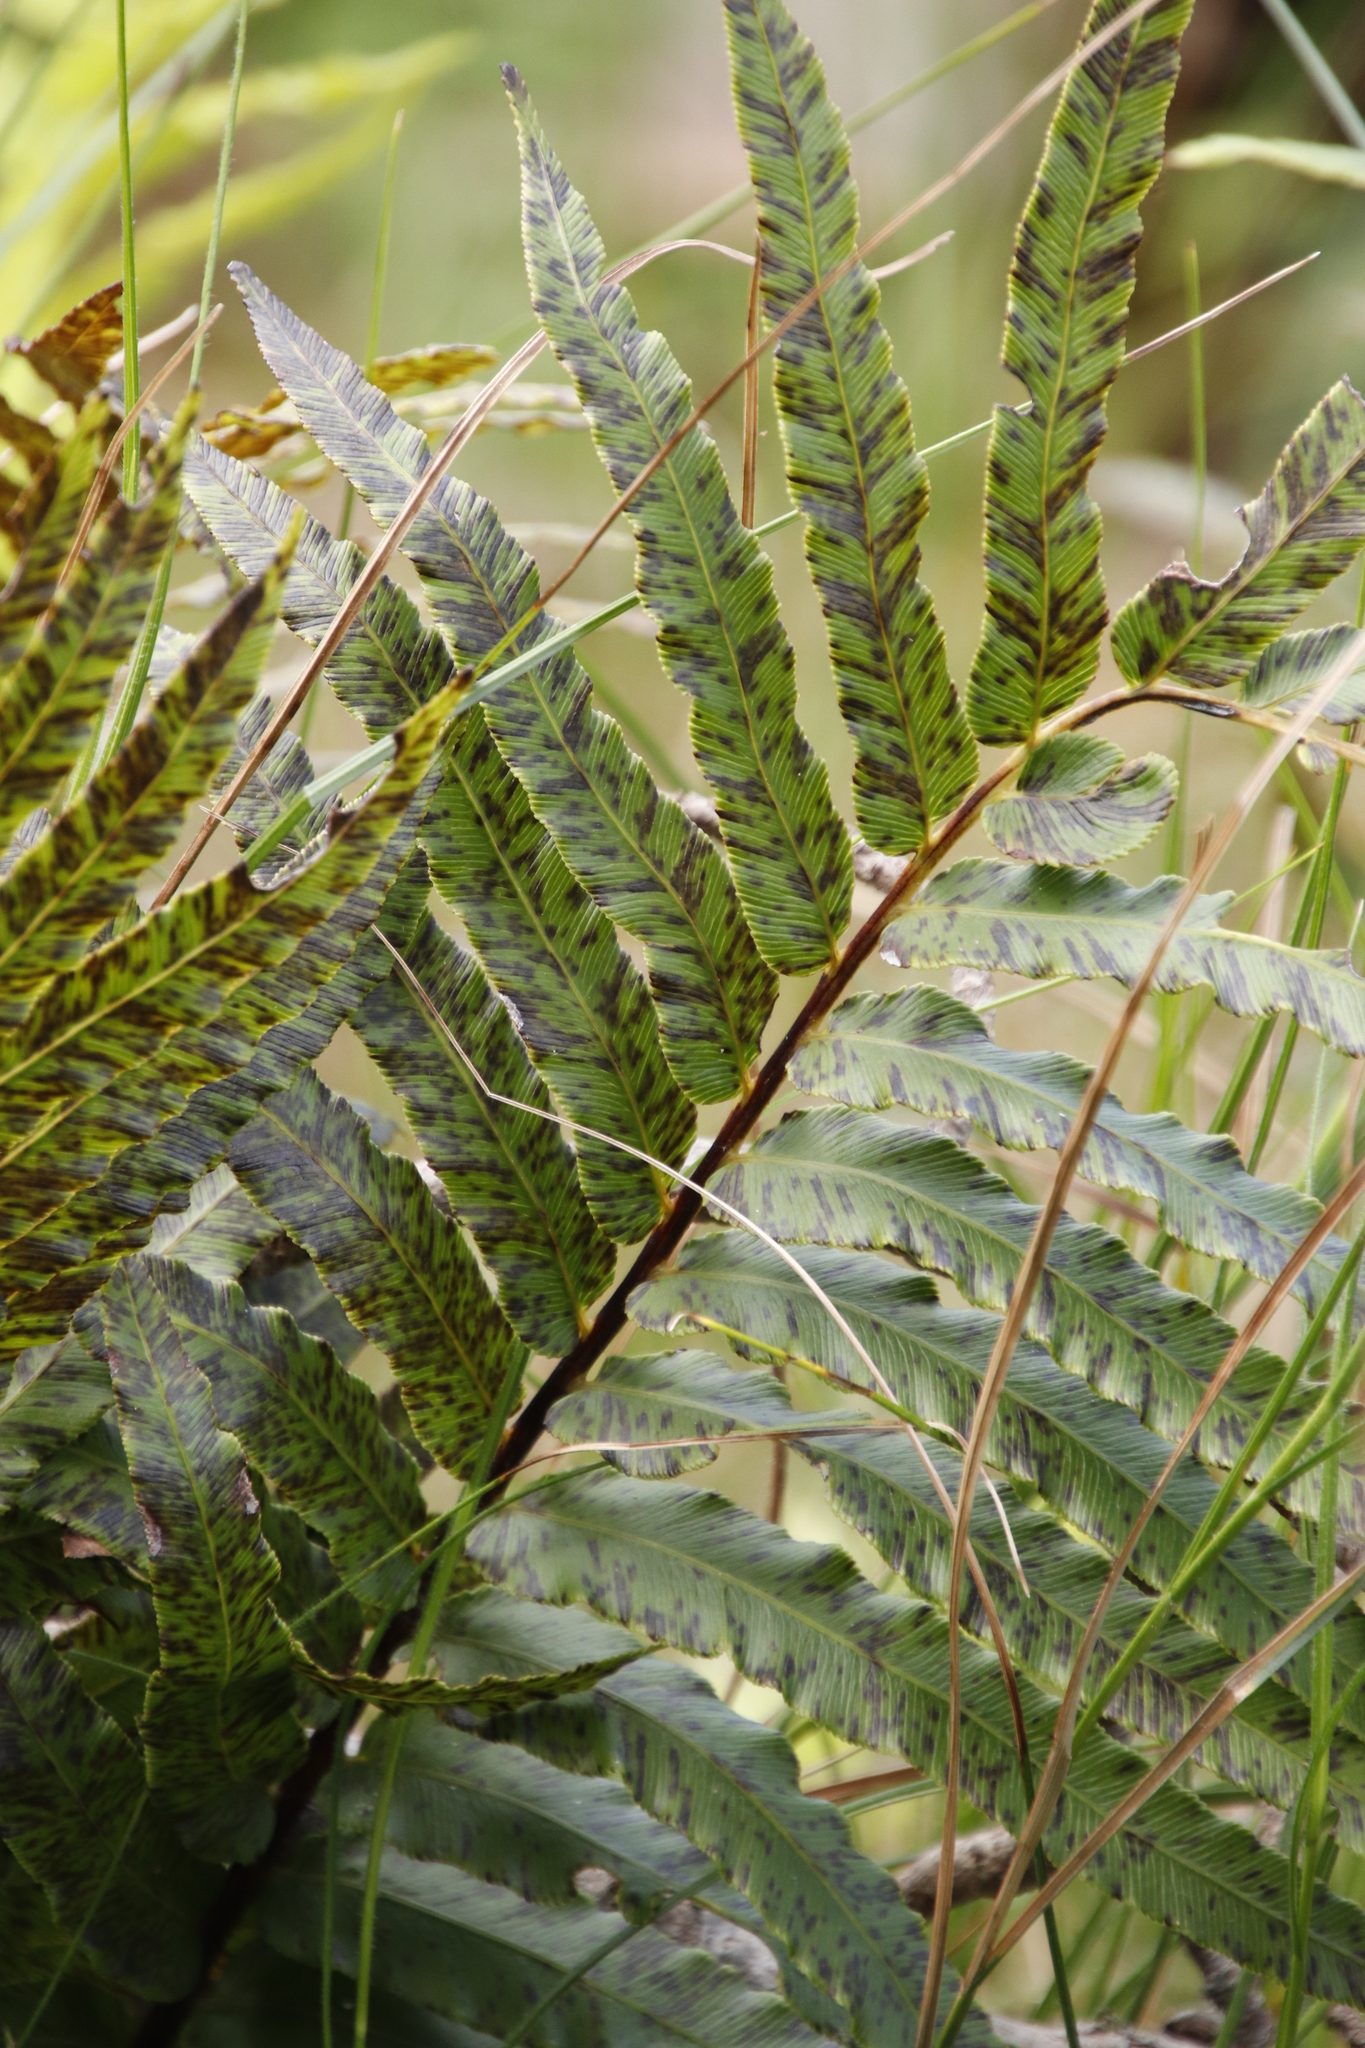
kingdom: Plantae
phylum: Tracheophyta
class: Polypodiopsida
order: Polypodiales
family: Blechnaceae
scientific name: Blechnaceae
